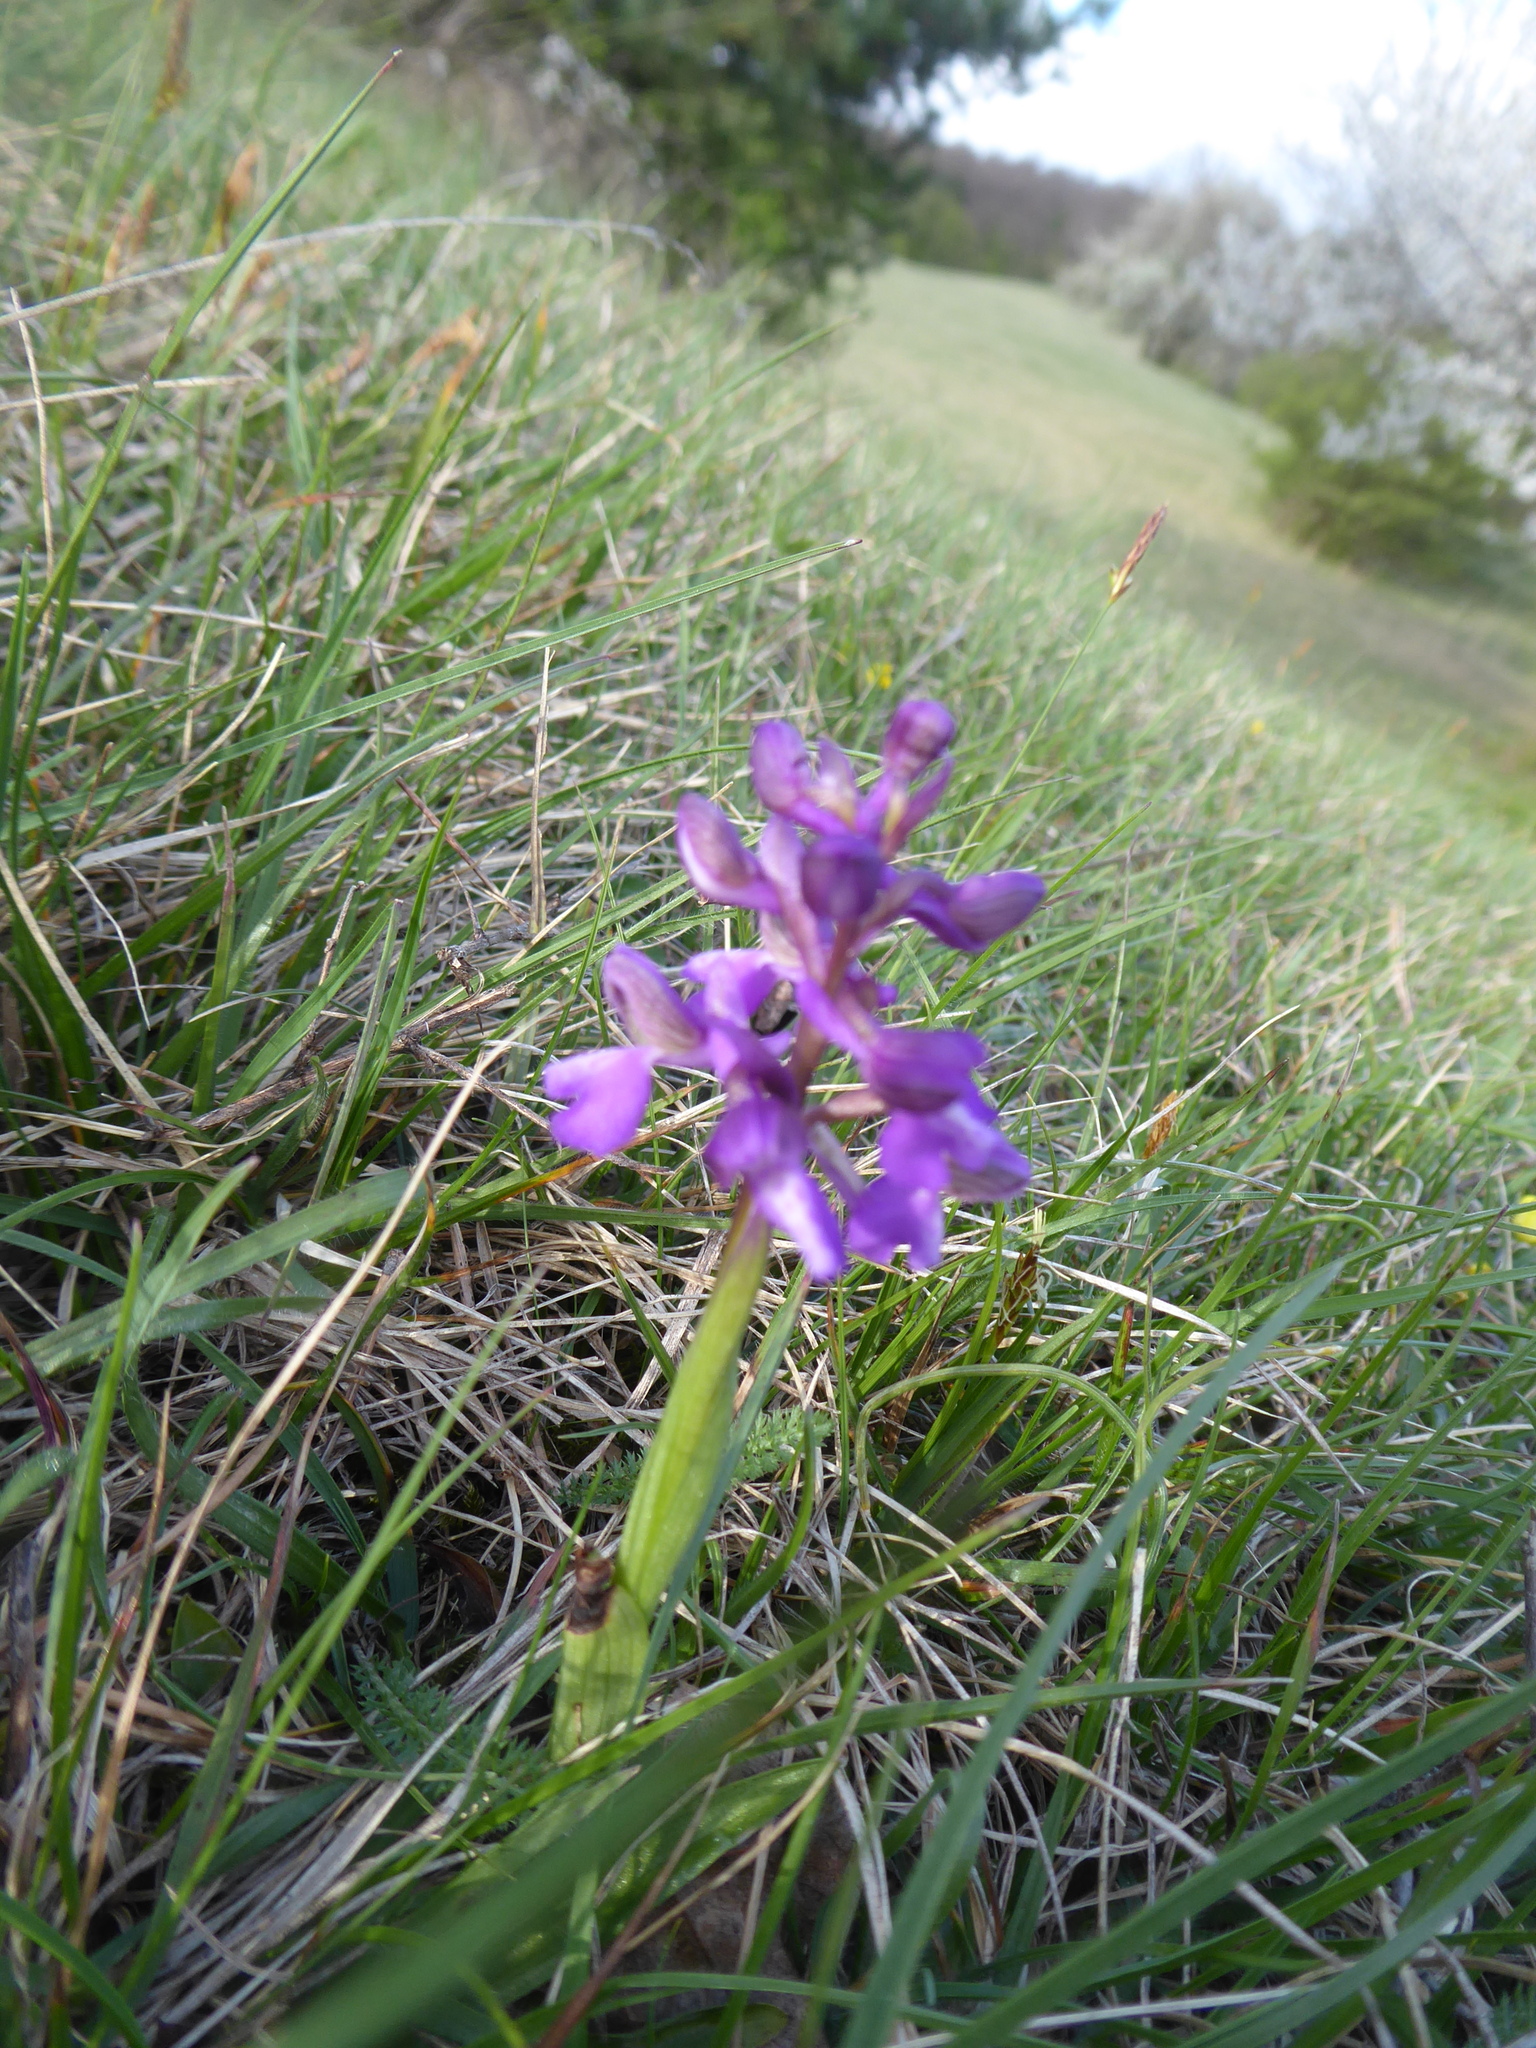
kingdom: Plantae
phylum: Tracheophyta
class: Liliopsida
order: Asparagales
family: Orchidaceae
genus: Anacamptis
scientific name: Anacamptis morio
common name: Green-winged orchid
